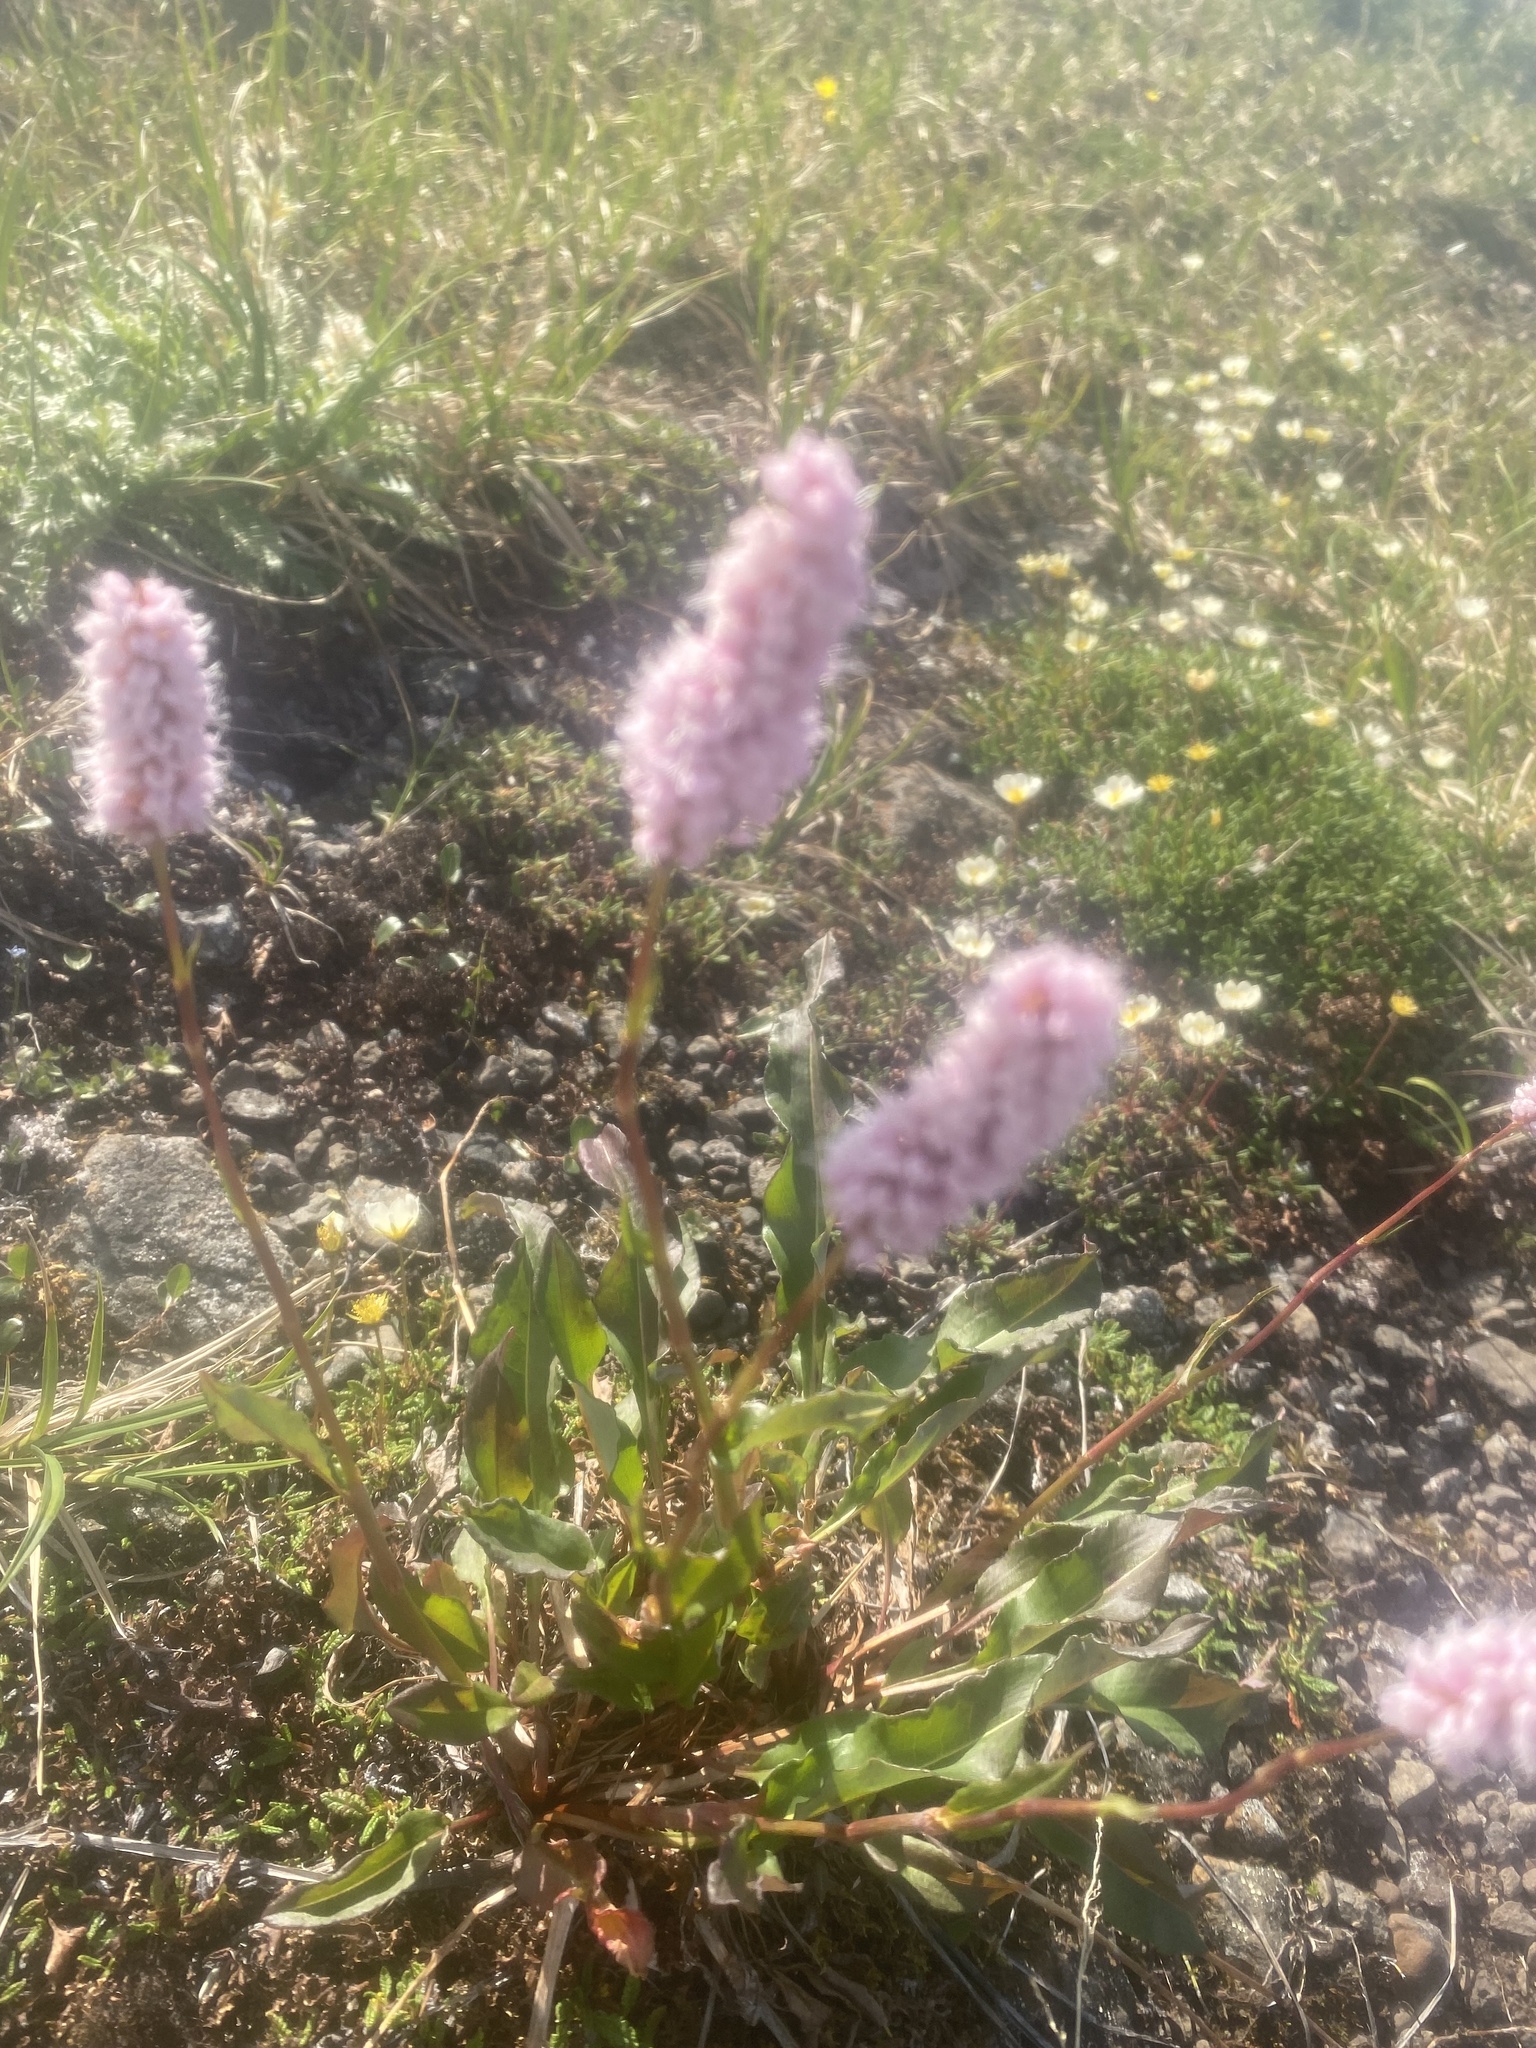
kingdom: Plantae
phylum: Tracheophyta
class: Magnoliopsida
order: Caryophyllales
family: Polygonaceae
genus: Bistorta
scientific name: Bistorta plumosa
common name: Meadow bistort
